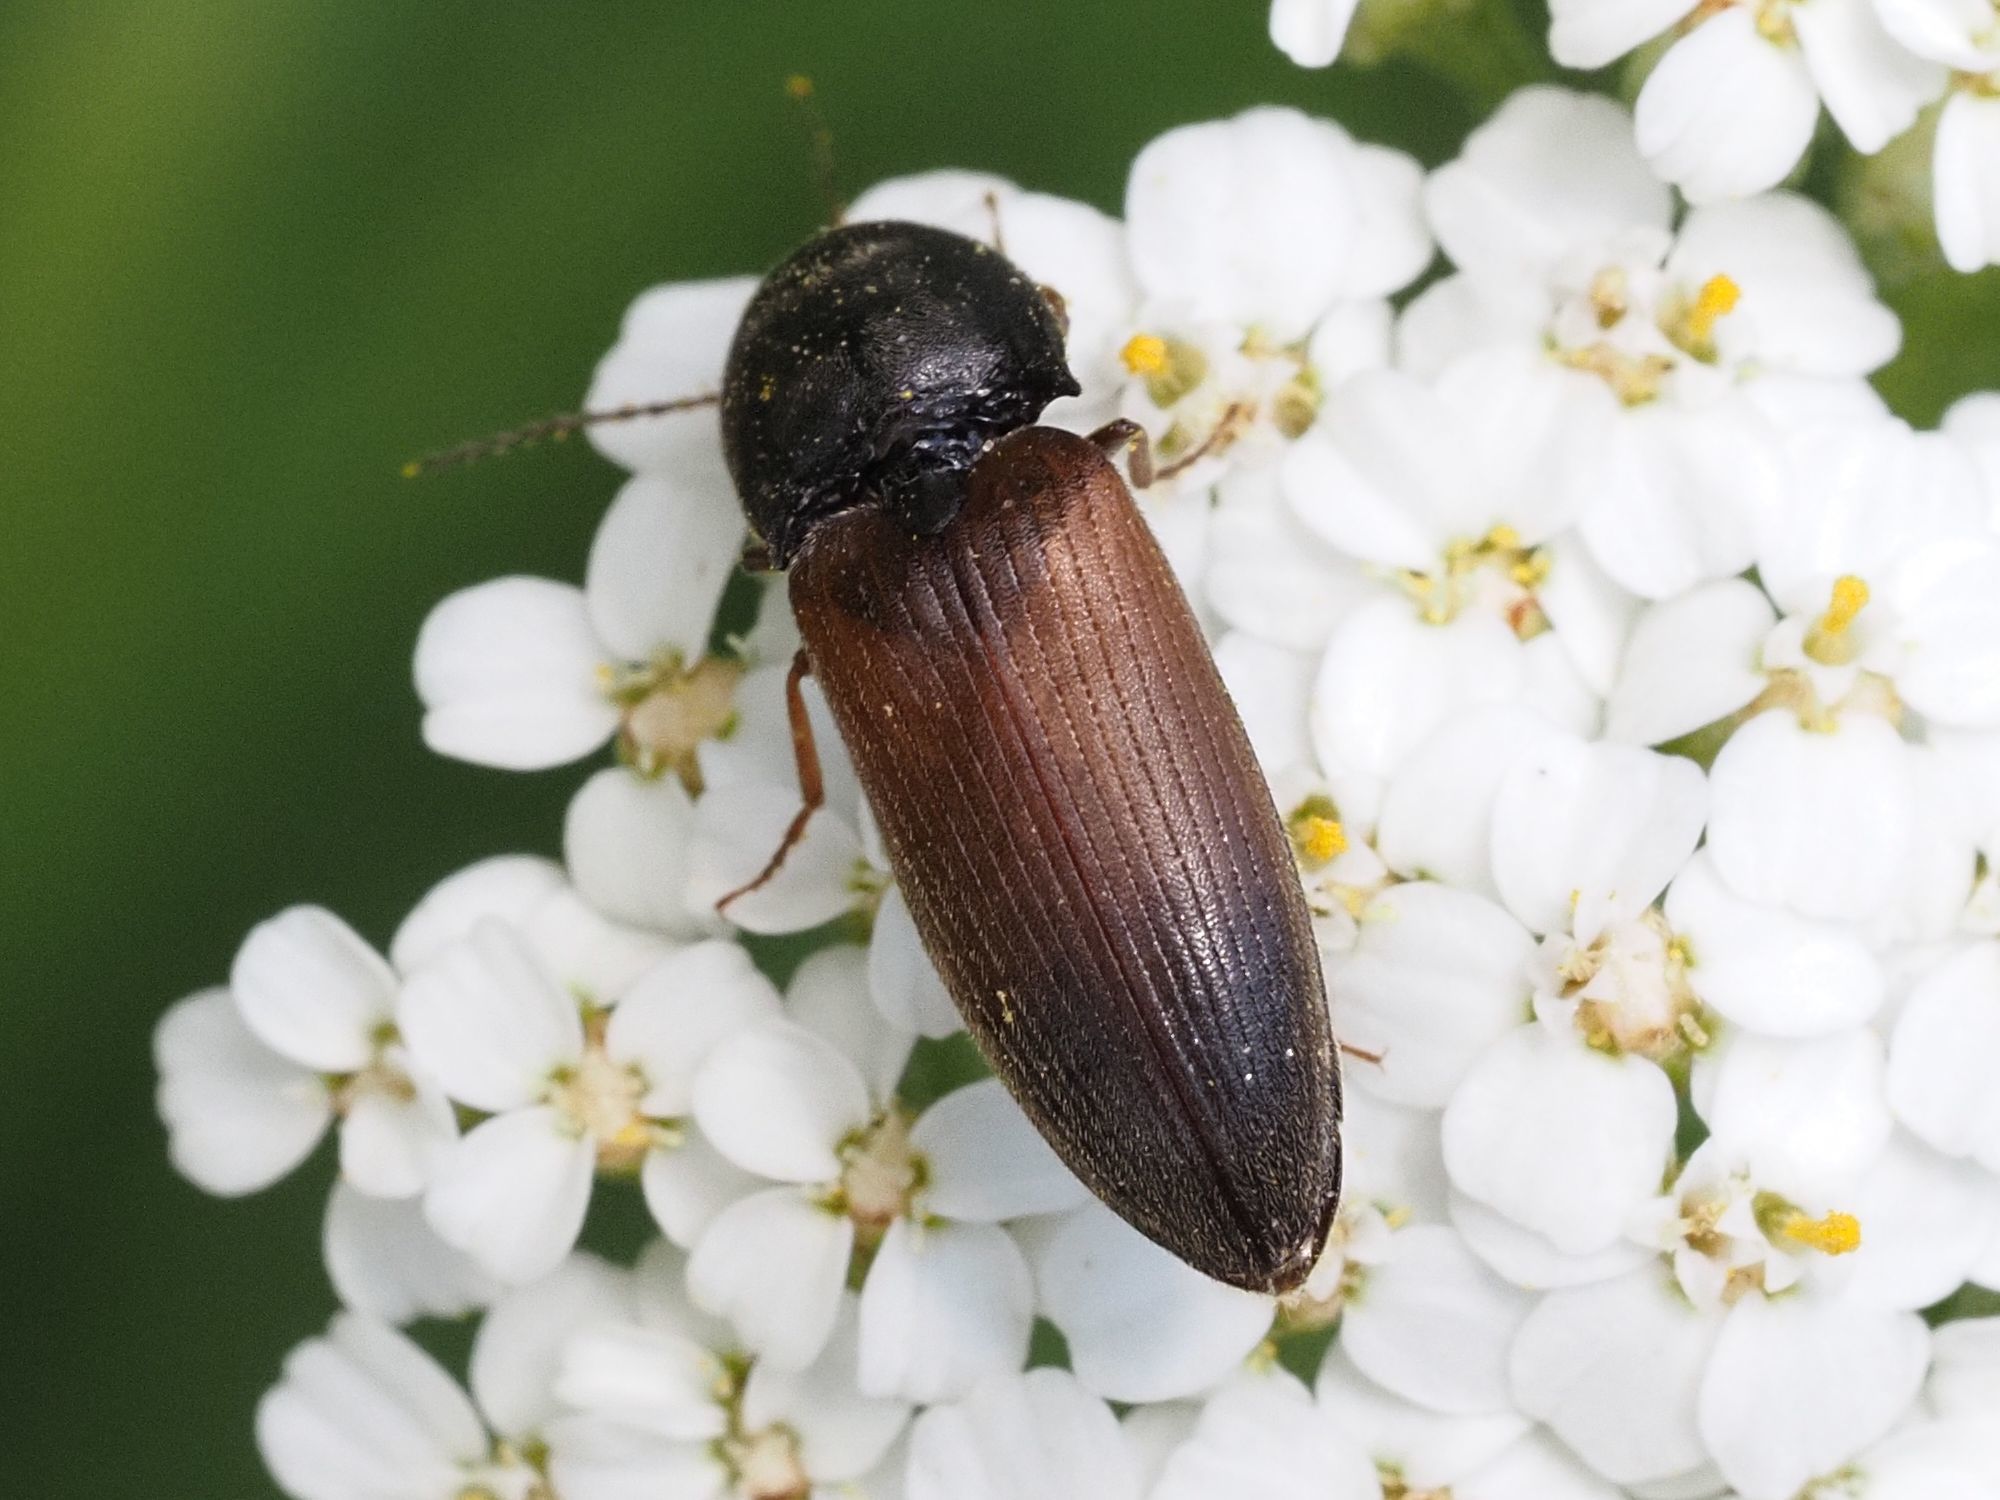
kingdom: Animalia
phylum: Arthropoda
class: Insecta
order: Coleoptera
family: Elateridae
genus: Agriotes
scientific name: Agriotes ustulatus
